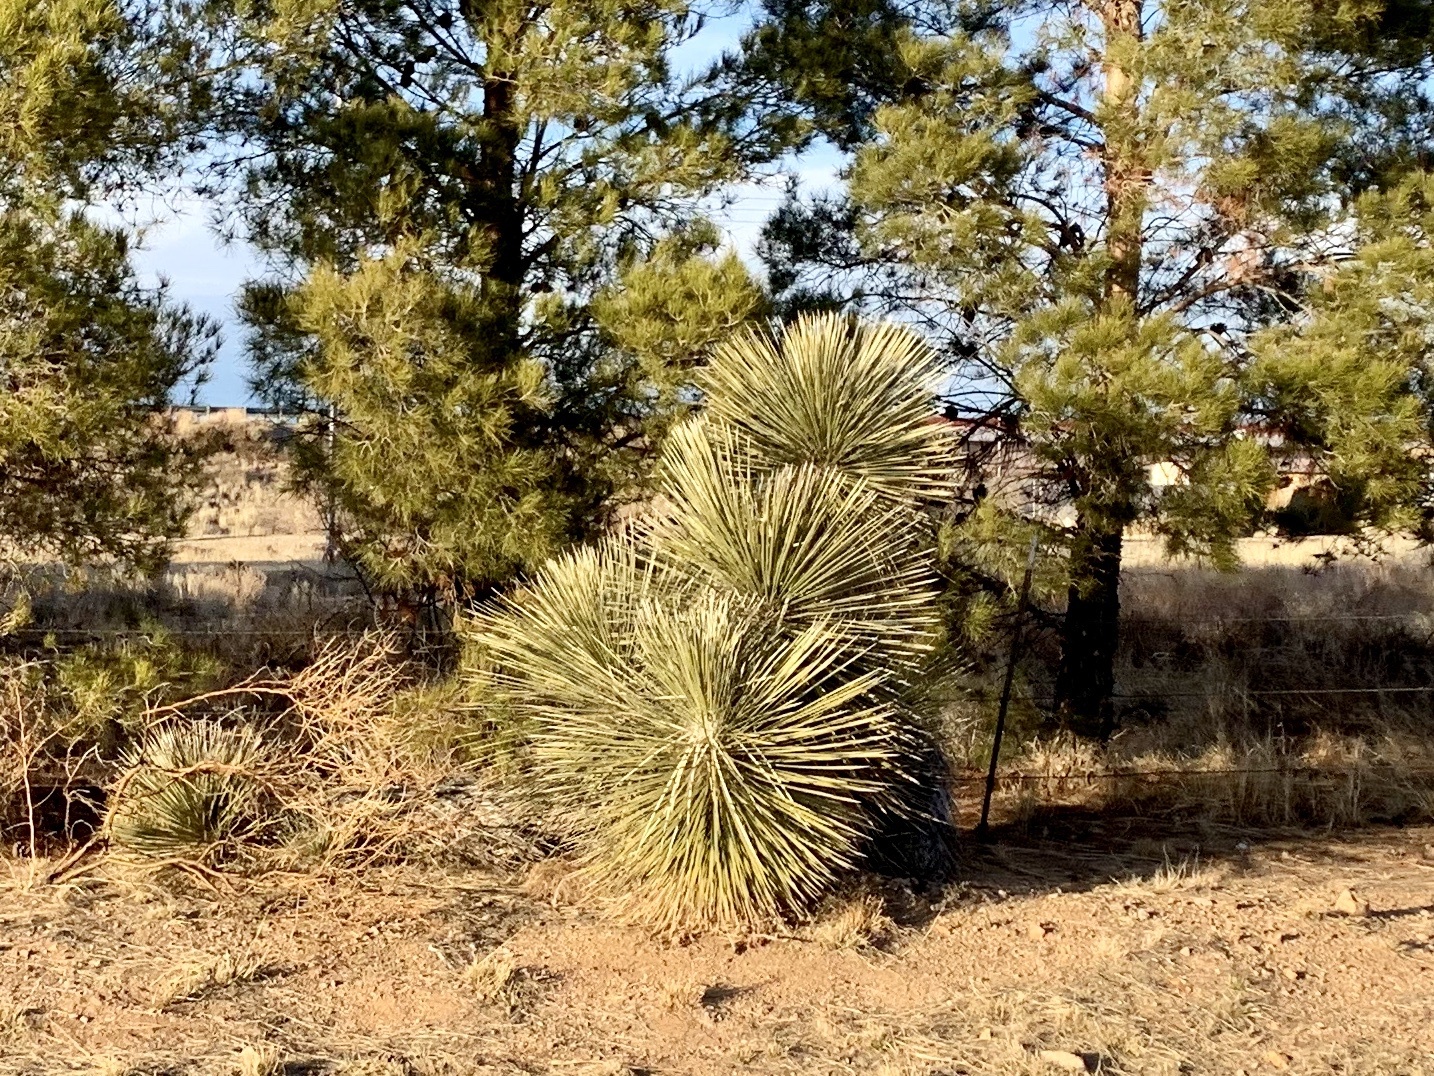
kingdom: Plantae
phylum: Tracheophyta
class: Liliopsida
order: Asparagales
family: Asparagaceae
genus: Yucca
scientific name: Yucca elata
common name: Palmella
